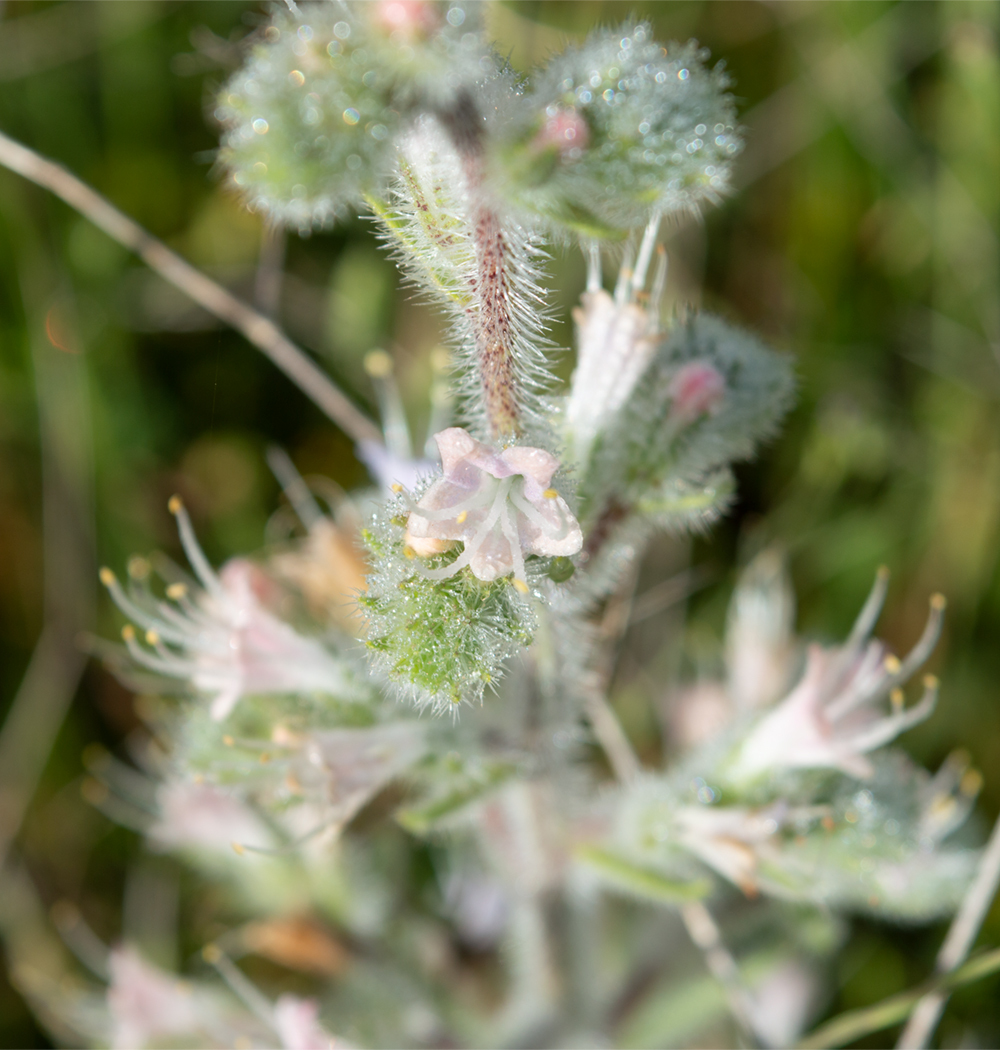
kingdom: Plantae
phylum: Tracheophyta
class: Magnoliopsida
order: Boraginales
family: Boraginaceae
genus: Echium
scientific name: Echium italicum
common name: Italian viper's bugloss
